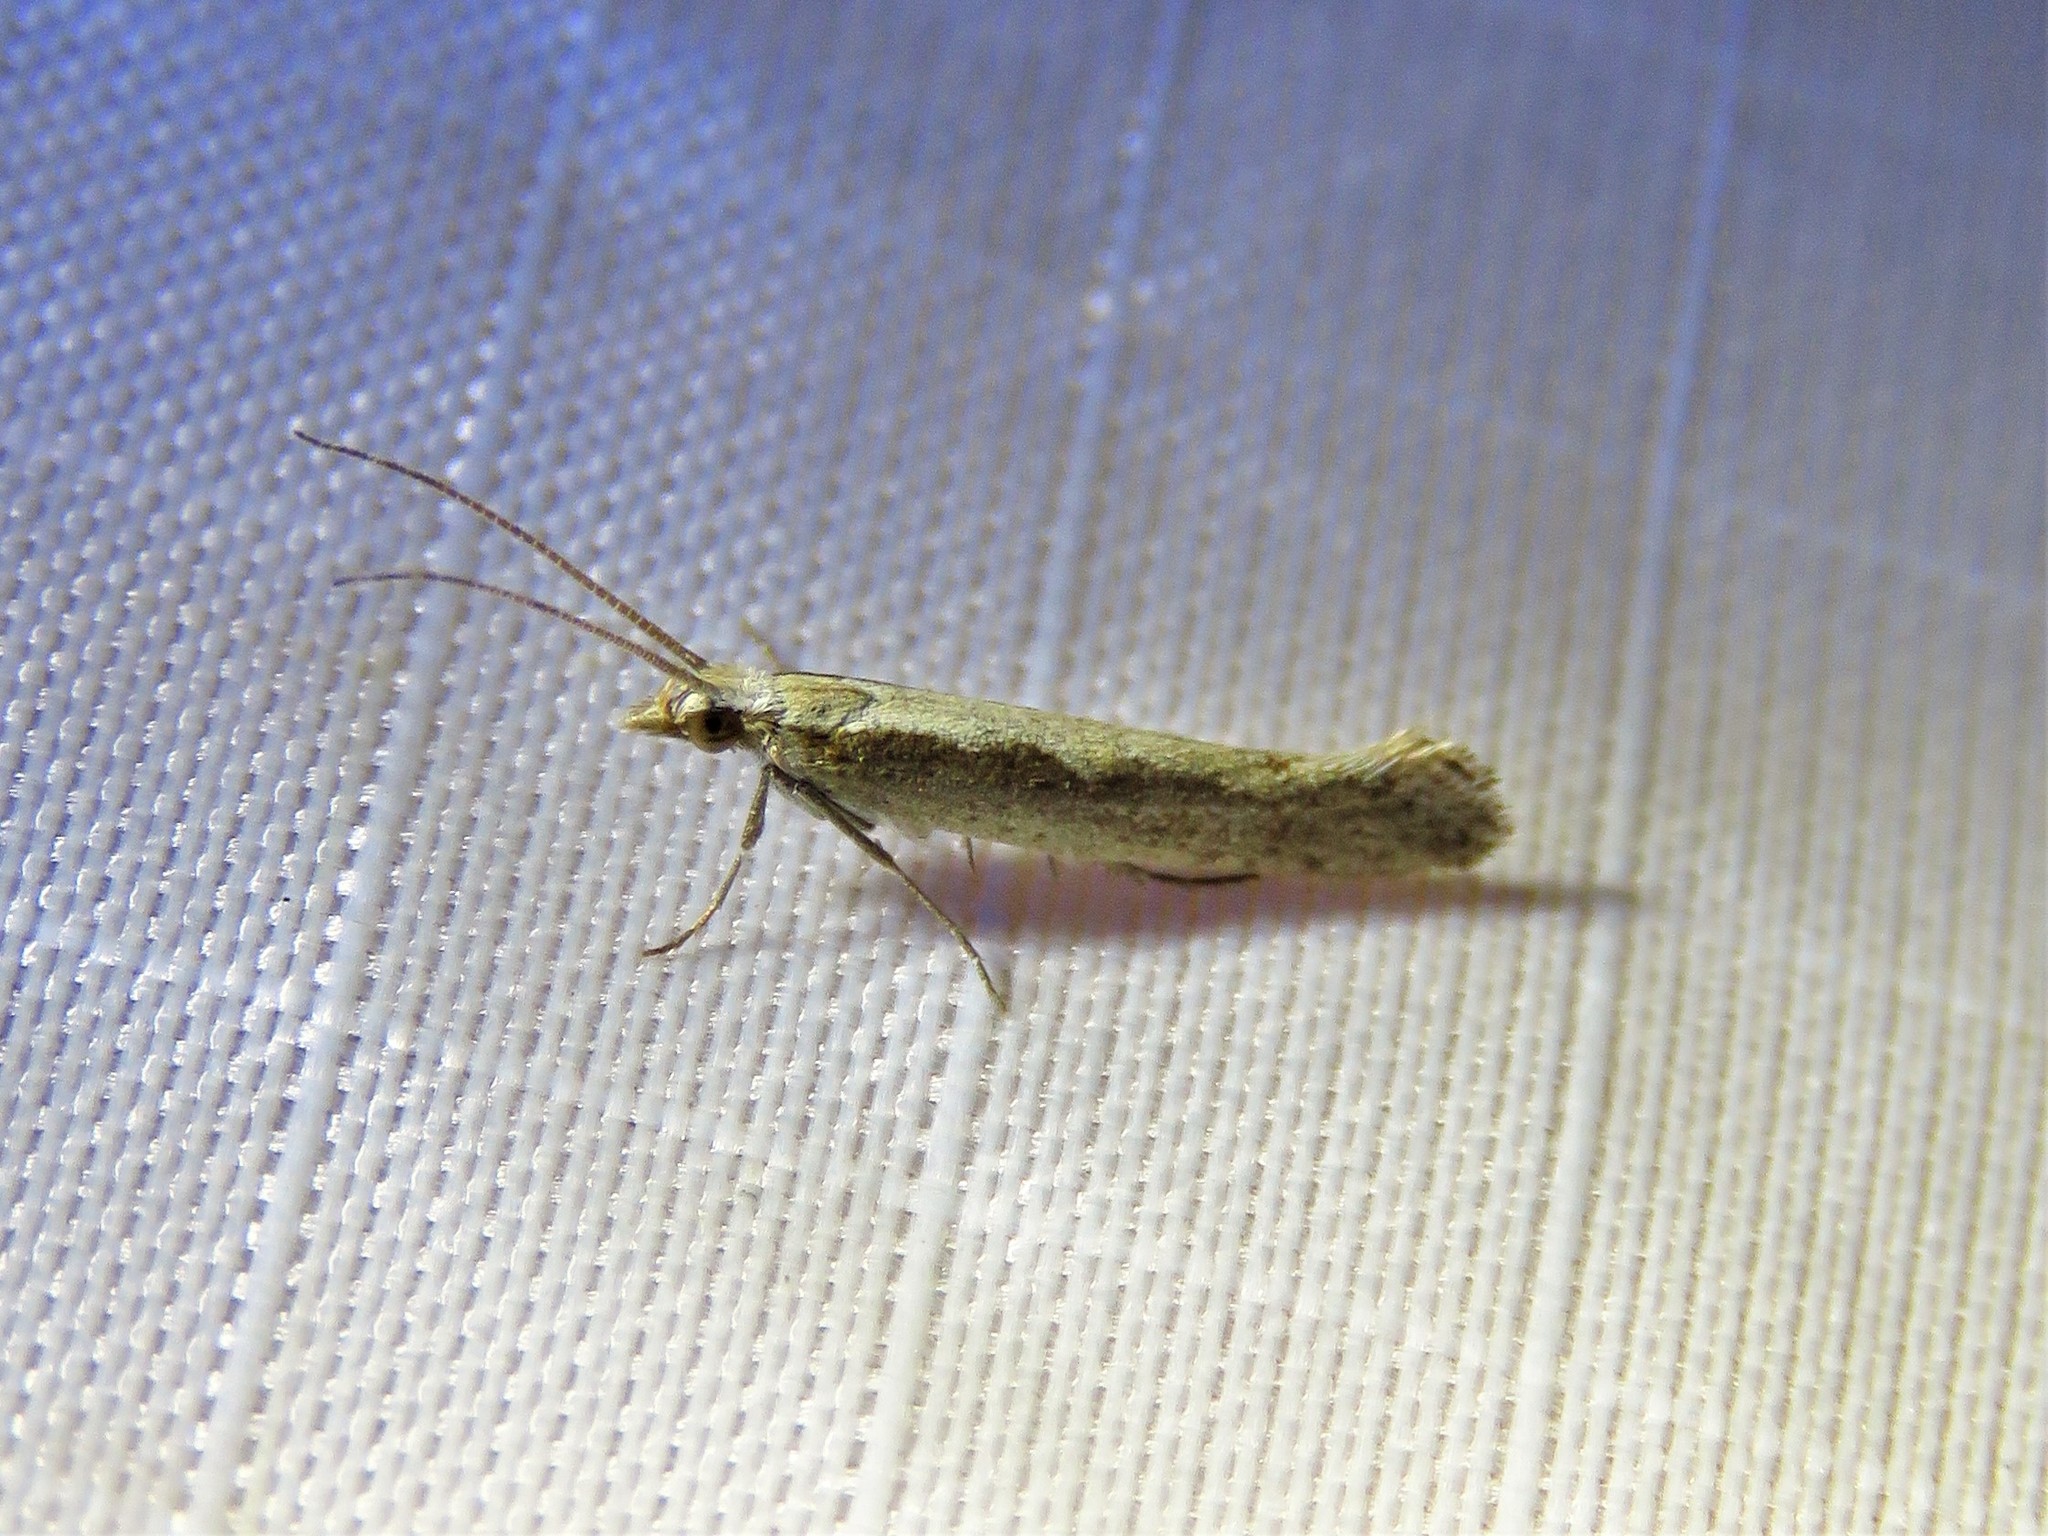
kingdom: Animalia
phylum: Arthropoda
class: Insecta
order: Lepidoptera
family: Plutellidae
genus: Plutella
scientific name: Plutella xylostella
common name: Diamond-back moth
